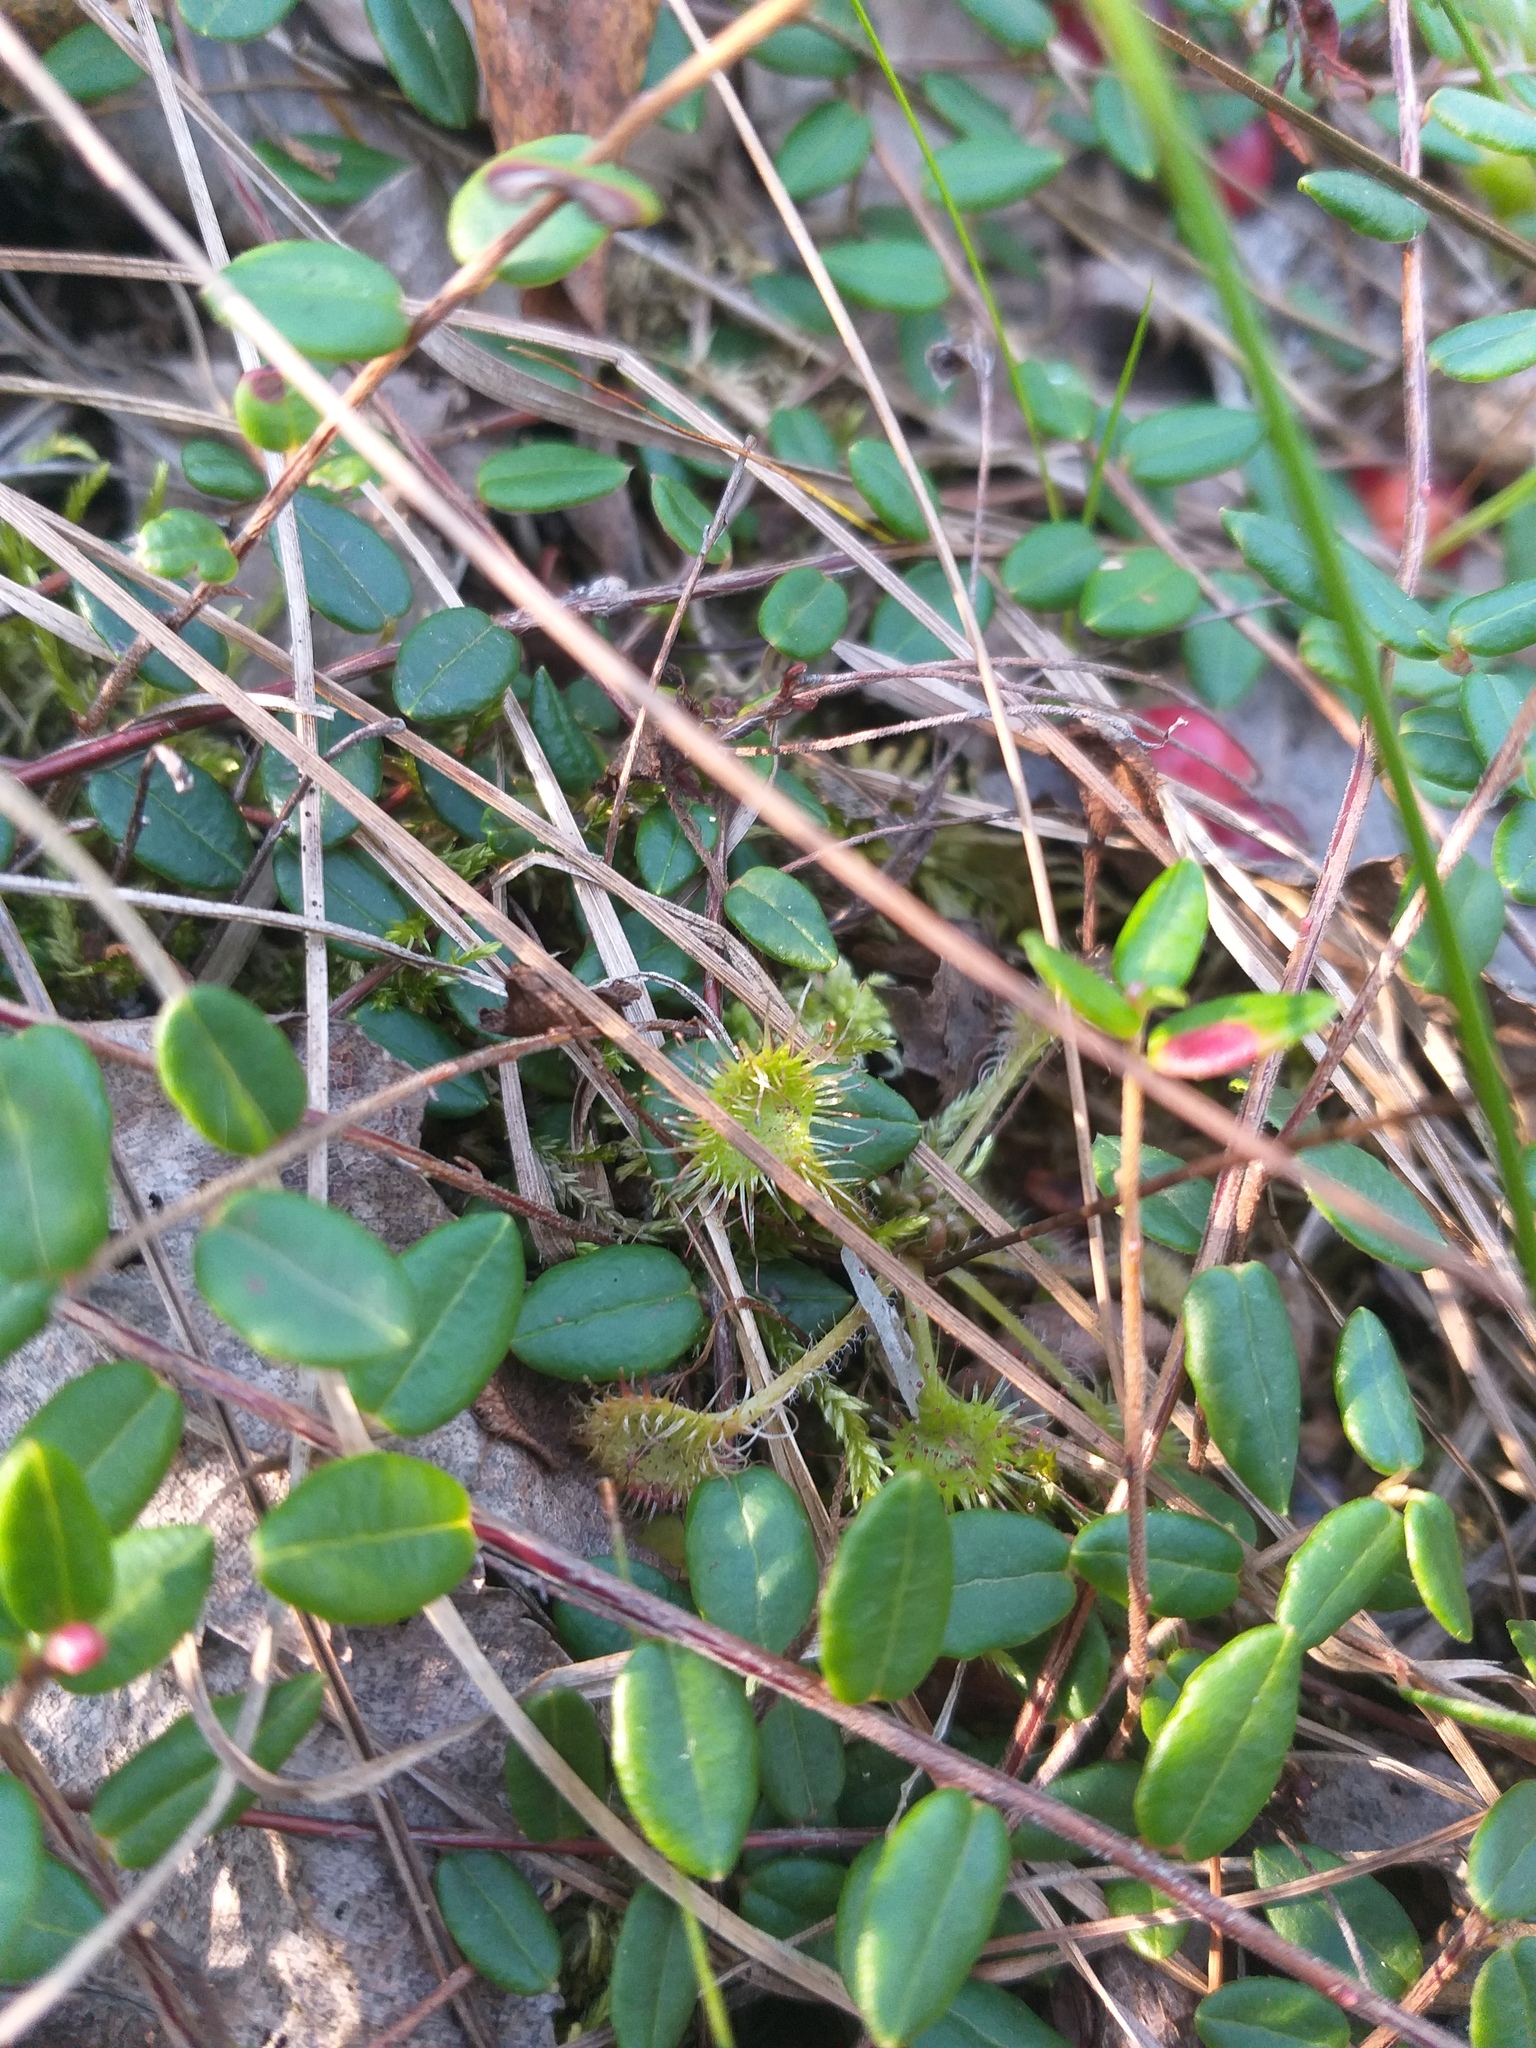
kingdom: Plantae
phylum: Tracheophyta
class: Magnoliopsida
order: Caryophyllales
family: Droseraceae
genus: Drosera
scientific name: Drosera rotundifolia
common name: Round-leaved sundew
